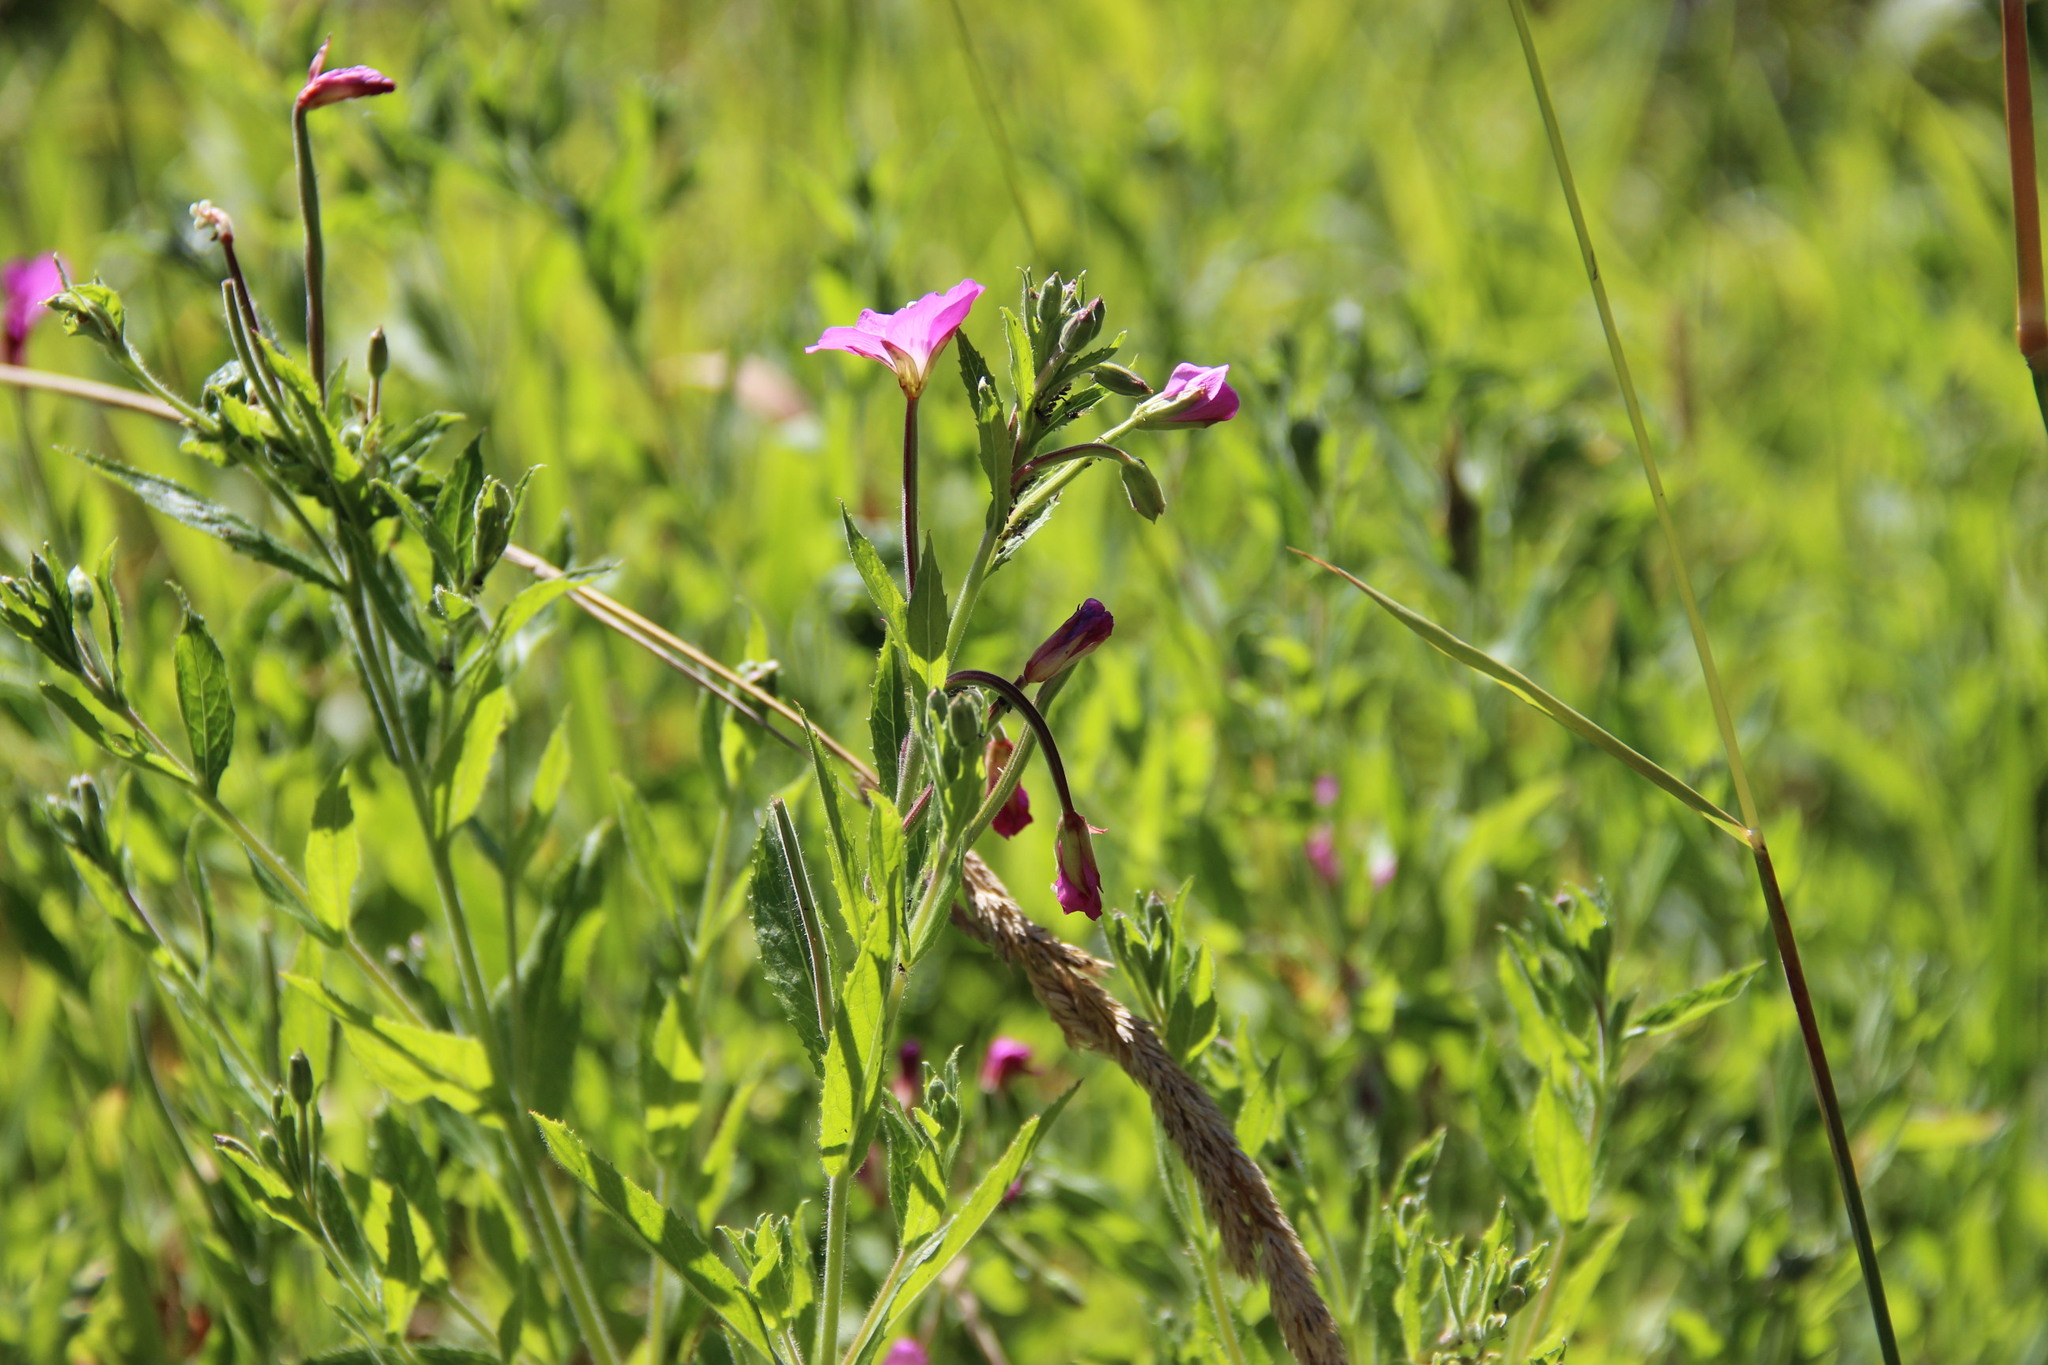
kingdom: Plantae
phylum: Tracheophyta
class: Magnoliopsida
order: Myrtales
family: Onagraceae
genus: Epilobium
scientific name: Epilobium hirsutum
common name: Great willowherb
